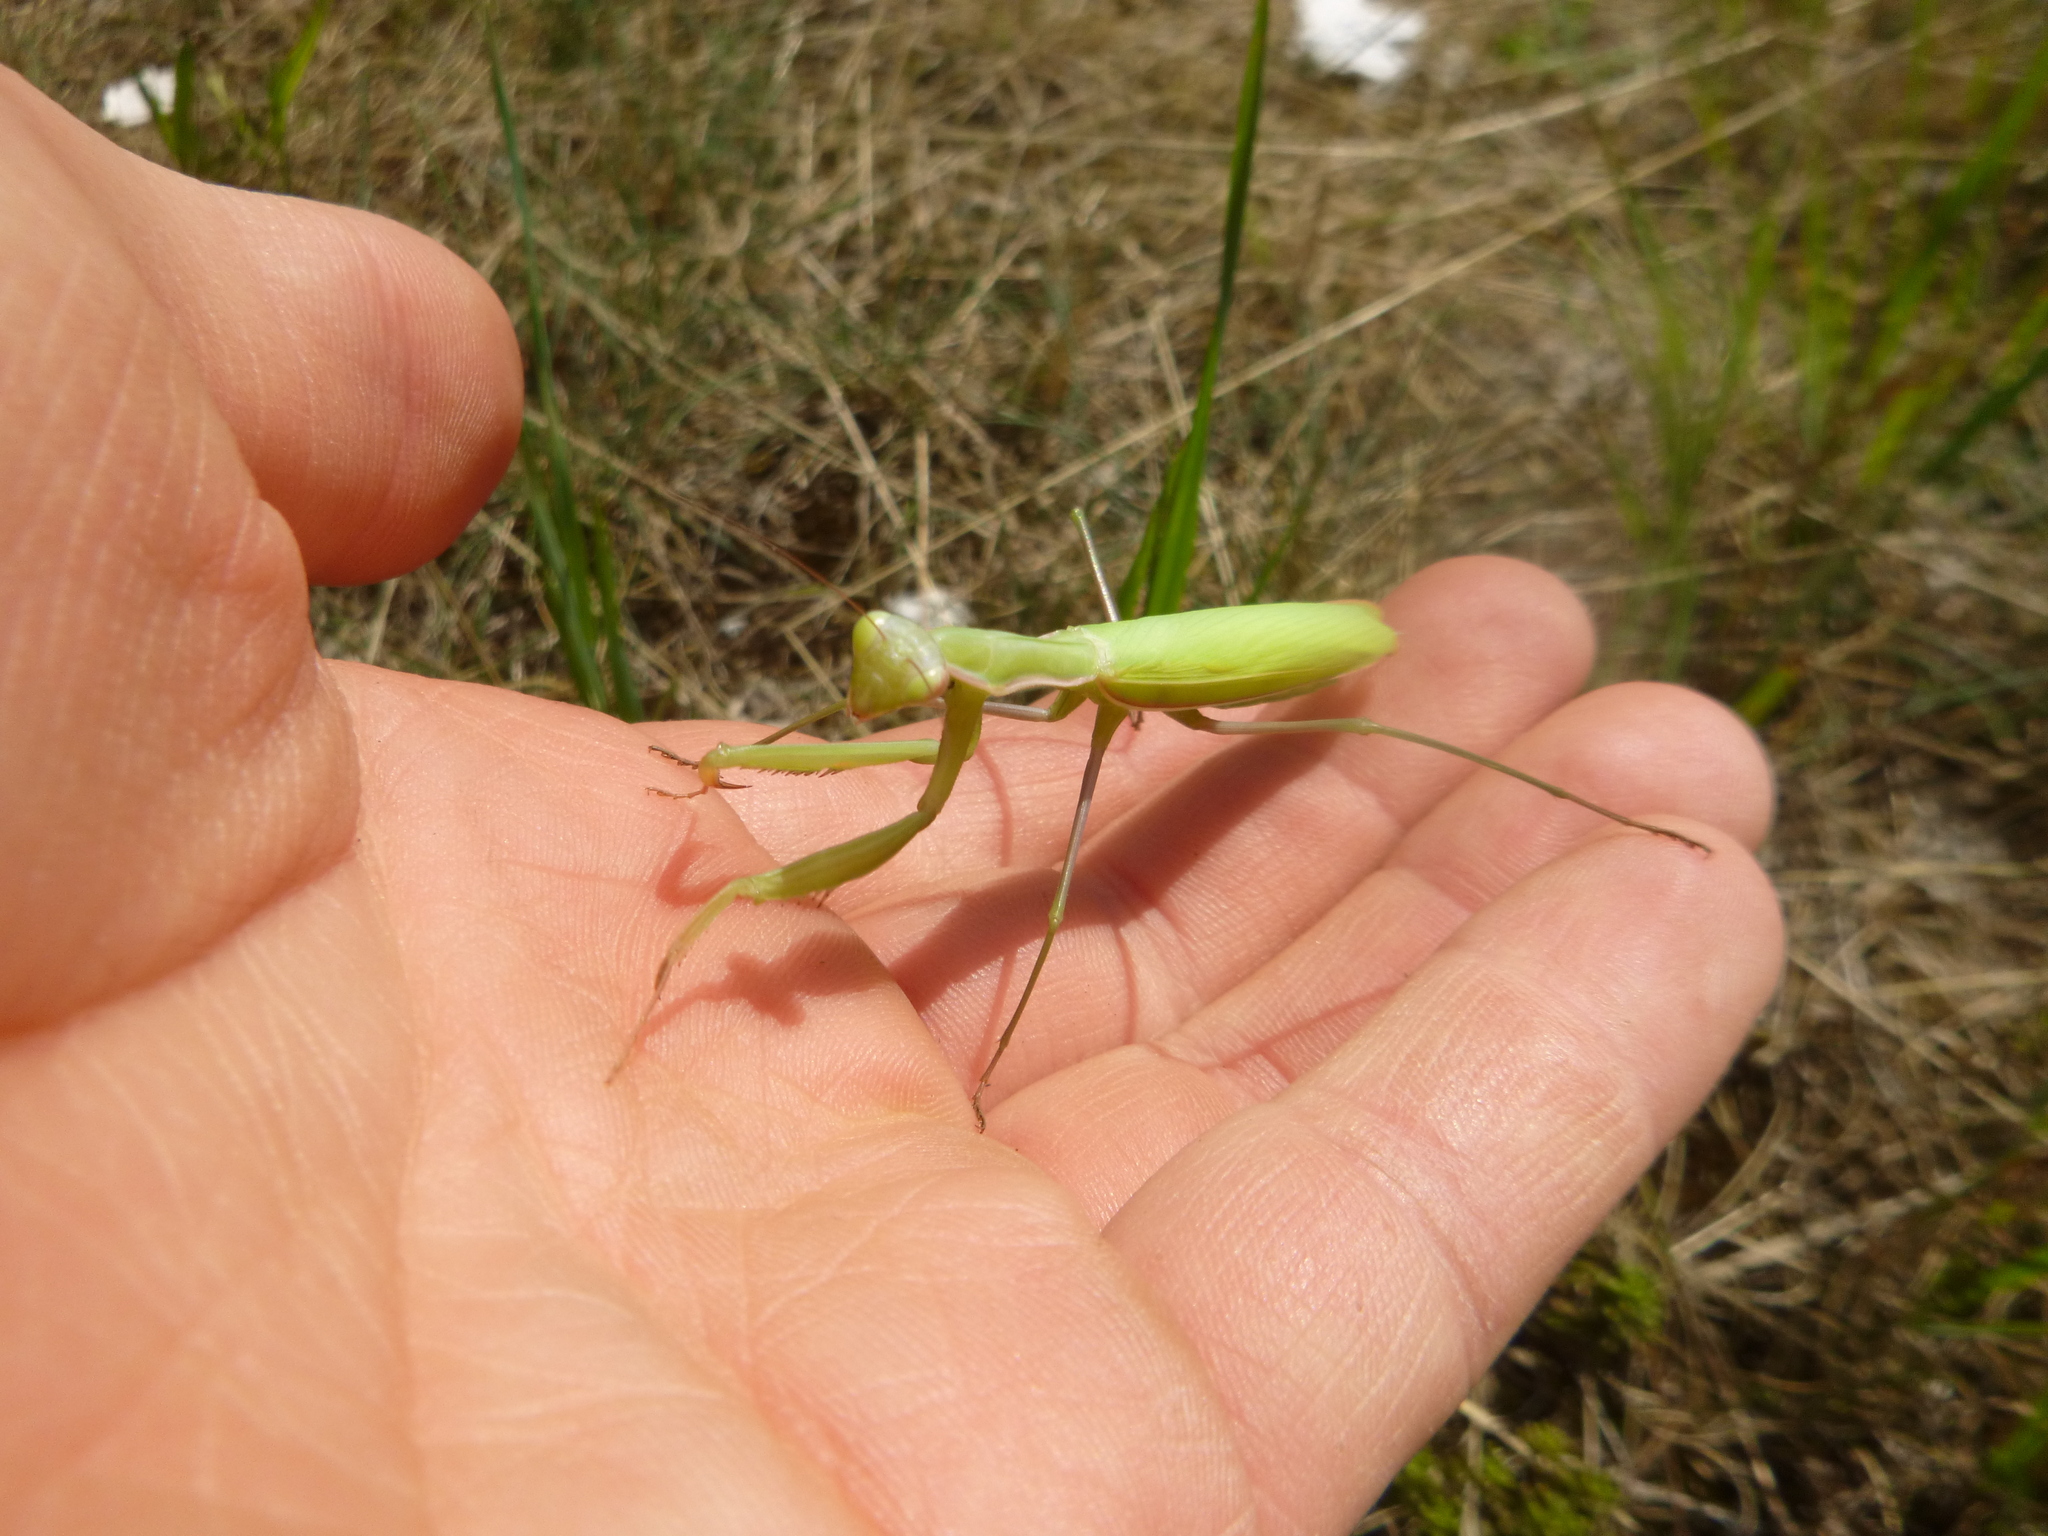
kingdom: Animalia
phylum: Arthropoda
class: Insecta
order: Mantodea
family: Mantidae
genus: Mantis
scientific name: Mantis religiosa
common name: Praying mantis
